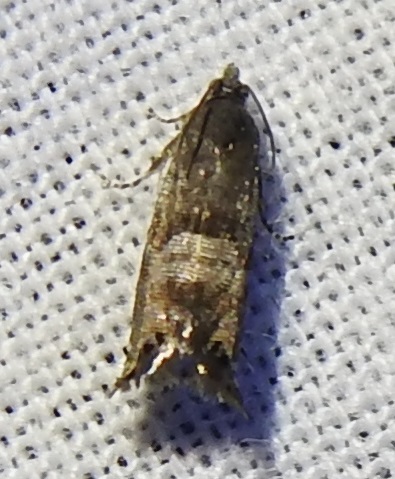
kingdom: Animalia
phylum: Arthropoda
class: Insecta
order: Lepidoptera
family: Tortricidae
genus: Sereda
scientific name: Sereda tautana
